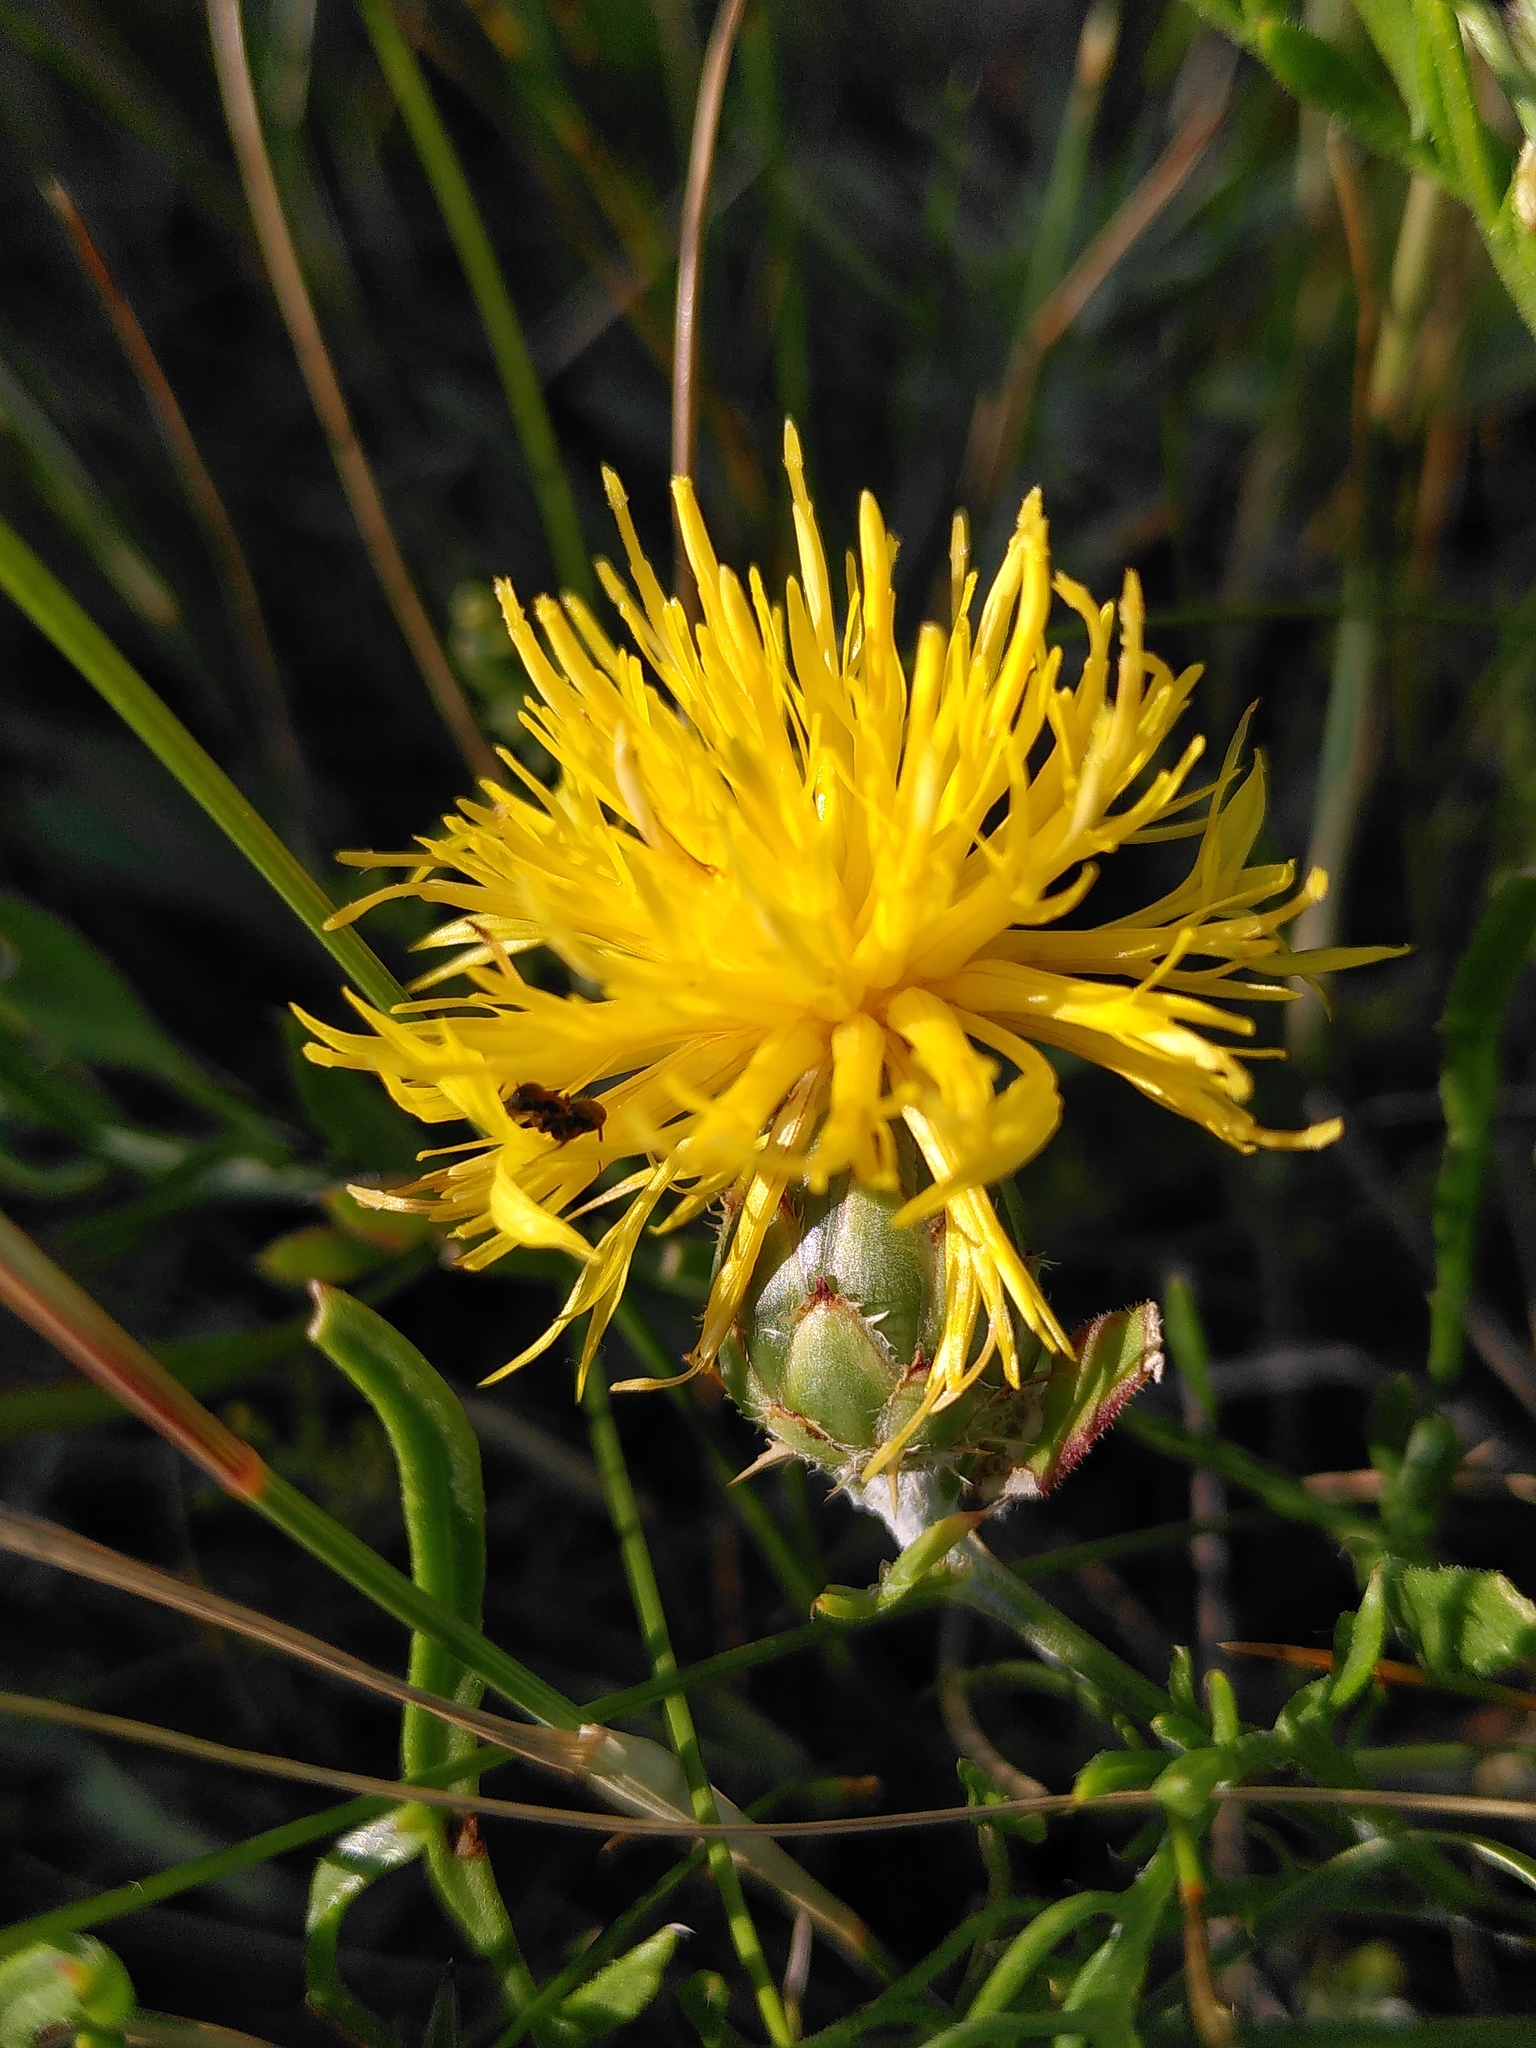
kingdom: Plantae
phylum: Tracheophyta
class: Magnoliopsida
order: Asterales
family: Asteraceae
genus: Centaurea
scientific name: Centaurea rupestris
